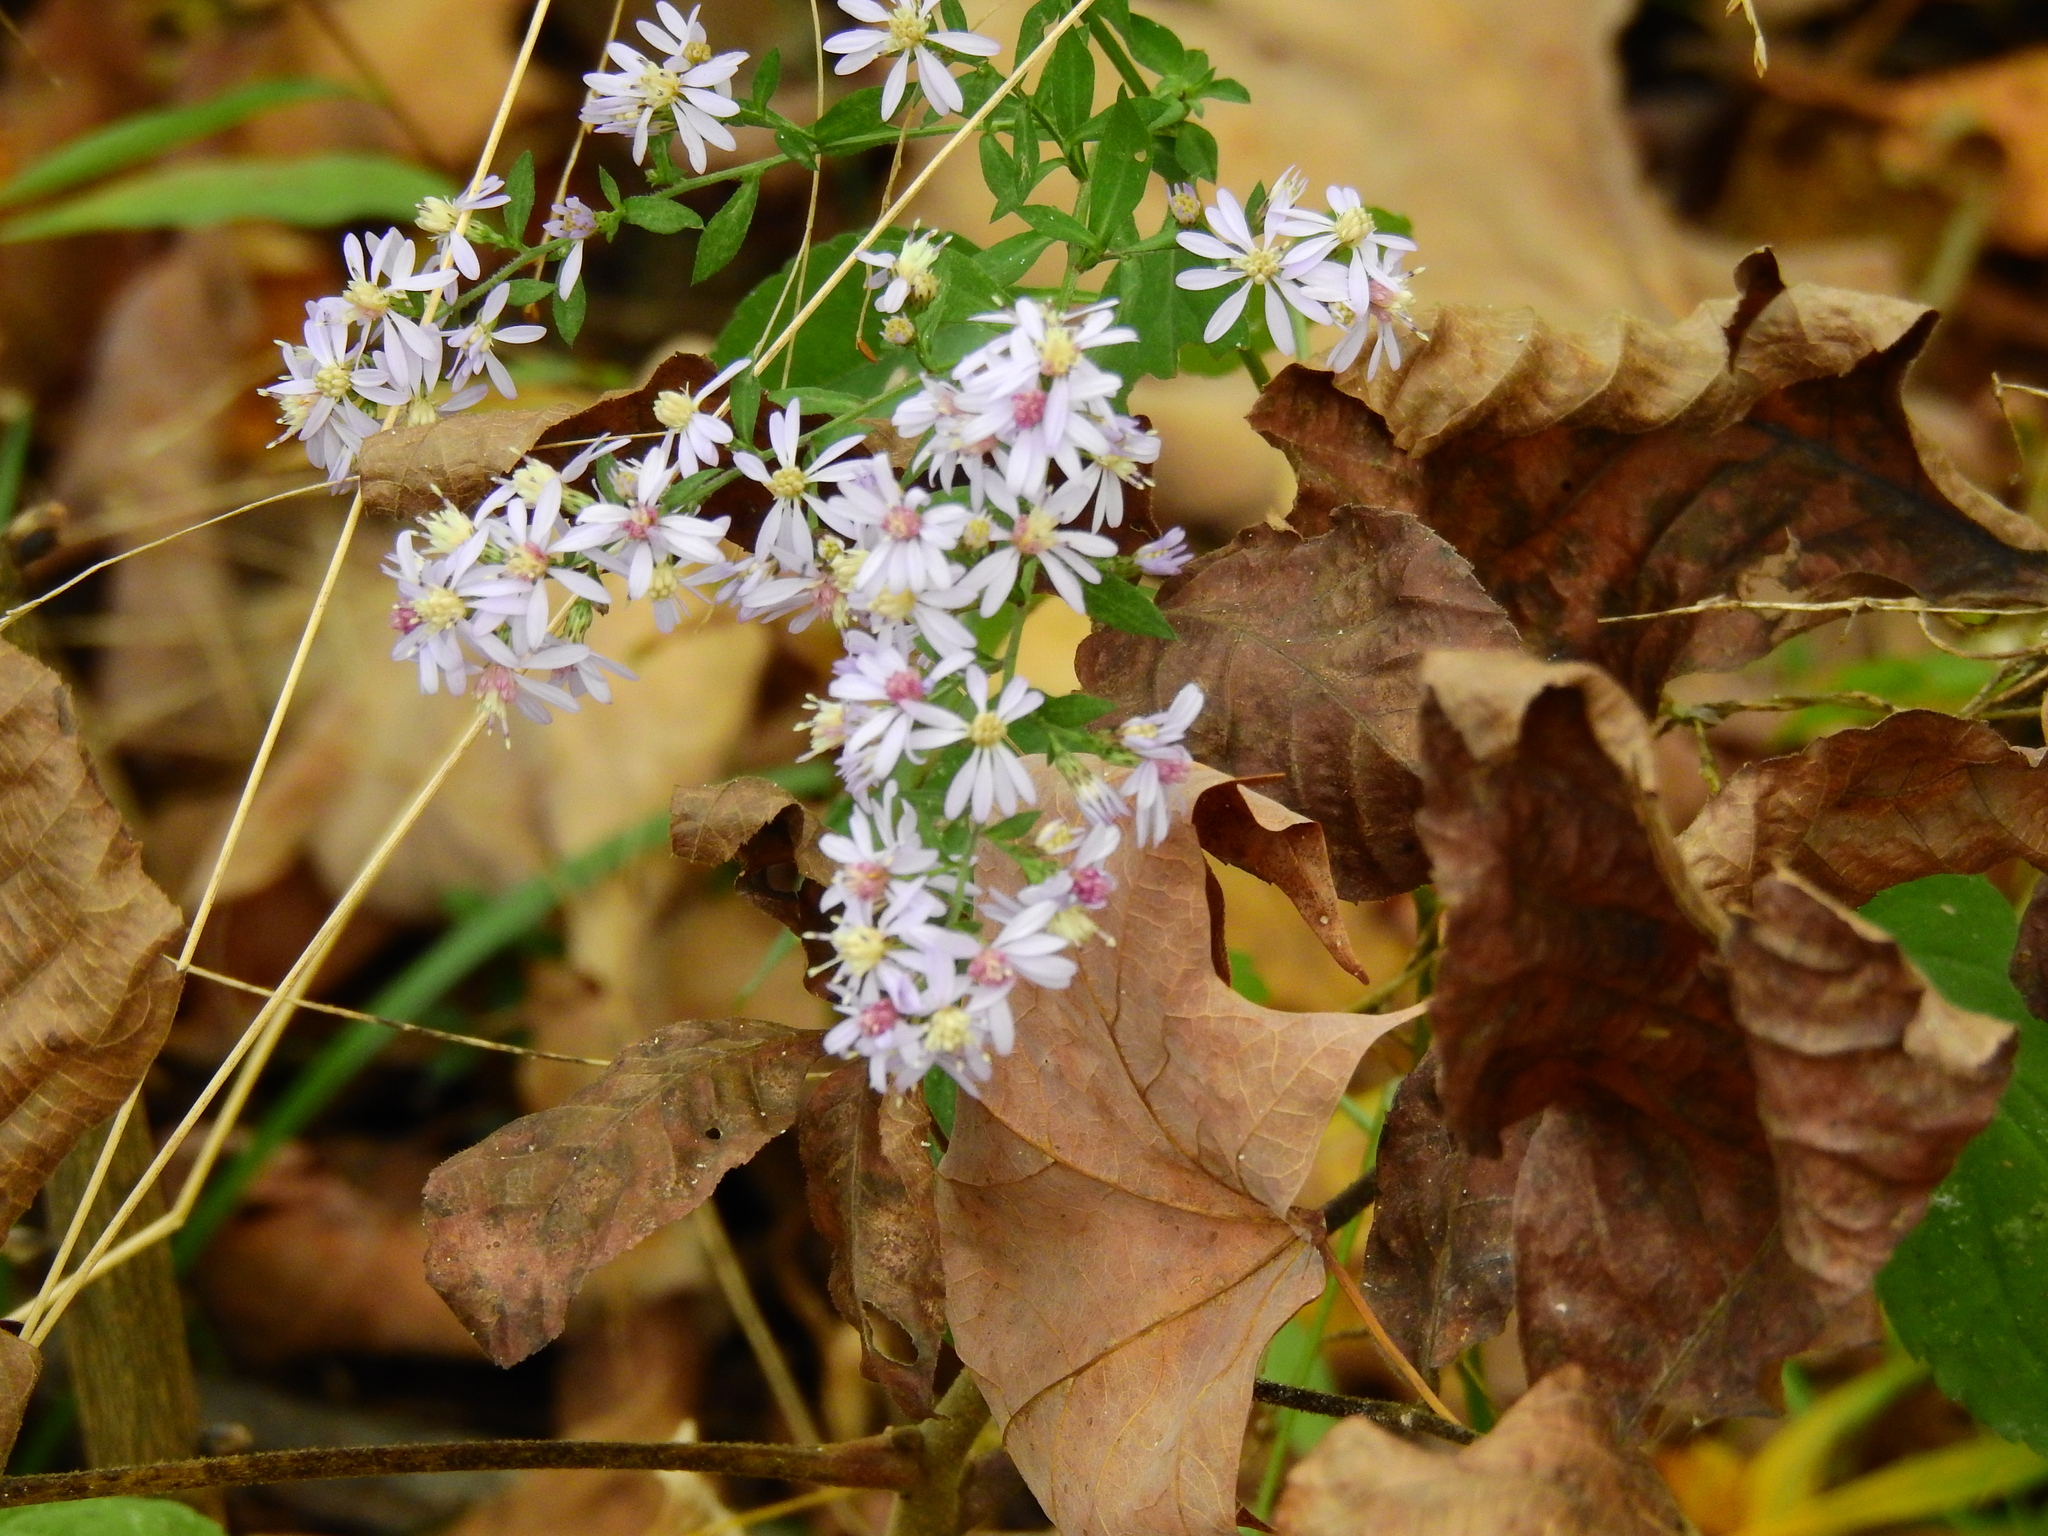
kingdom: Plantae
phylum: Tracheophyta
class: Magnoliopsida
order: Asterales
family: Asteraceae
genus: Symphyotrichum
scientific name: Symphyotrichum lateriflorum
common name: Calico aster
